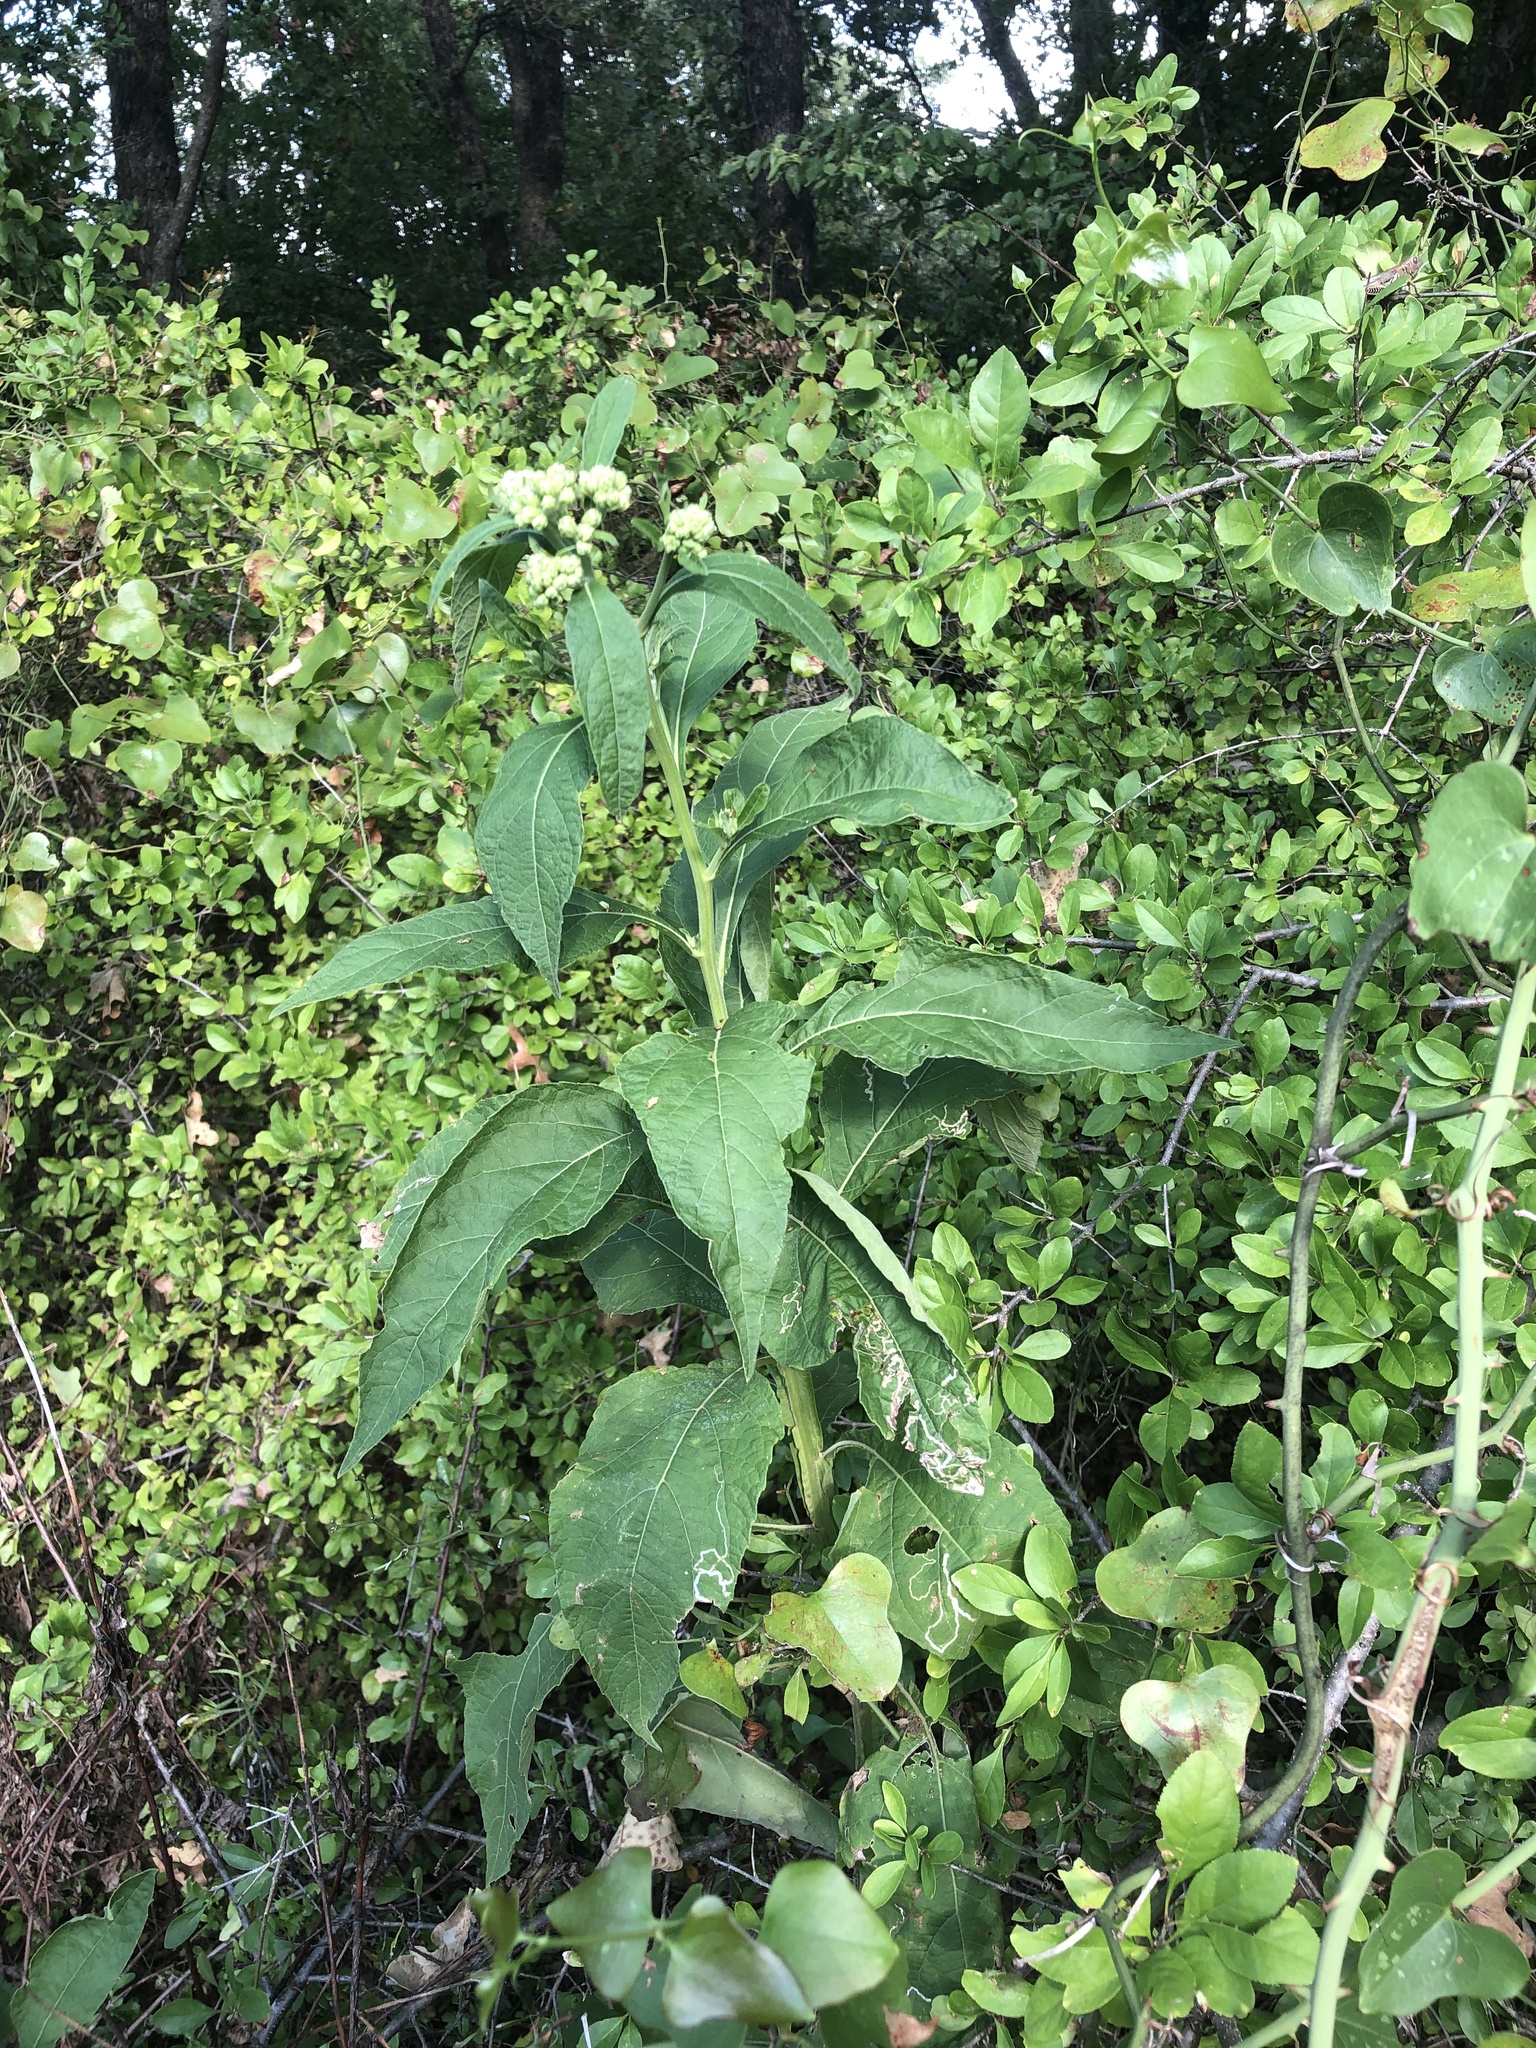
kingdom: Plantae
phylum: Tracheophyta
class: Magnoliopsida
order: Asterales
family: Asteraceae
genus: Verbesina
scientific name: Verbesina virginica
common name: Frostweed
